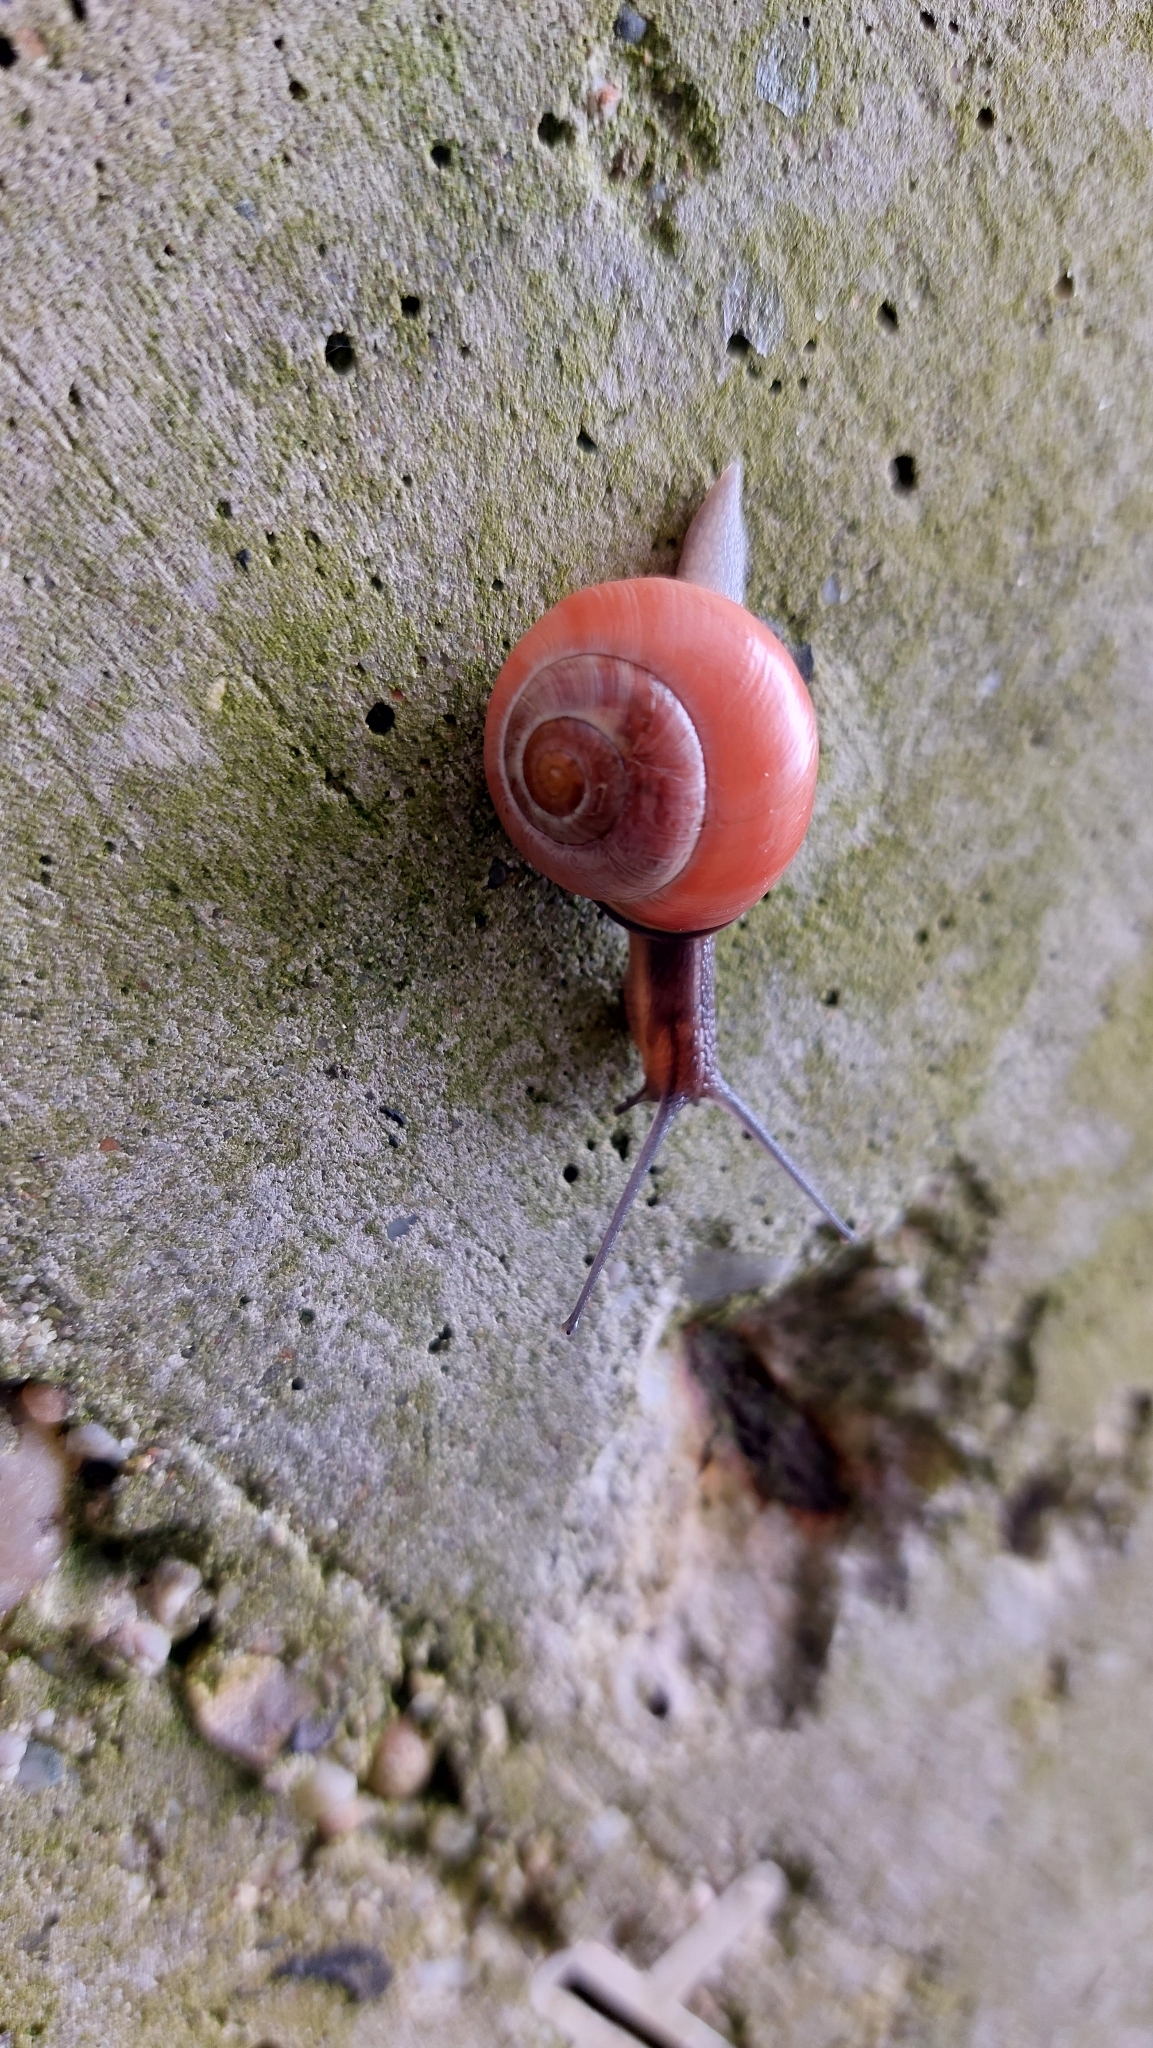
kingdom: Animalia
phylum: Mollusca
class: Gastropoda
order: Stylommatophora
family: Helicidae
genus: Cepaea
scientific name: Cepaea nemoralis
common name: Grovesnail
